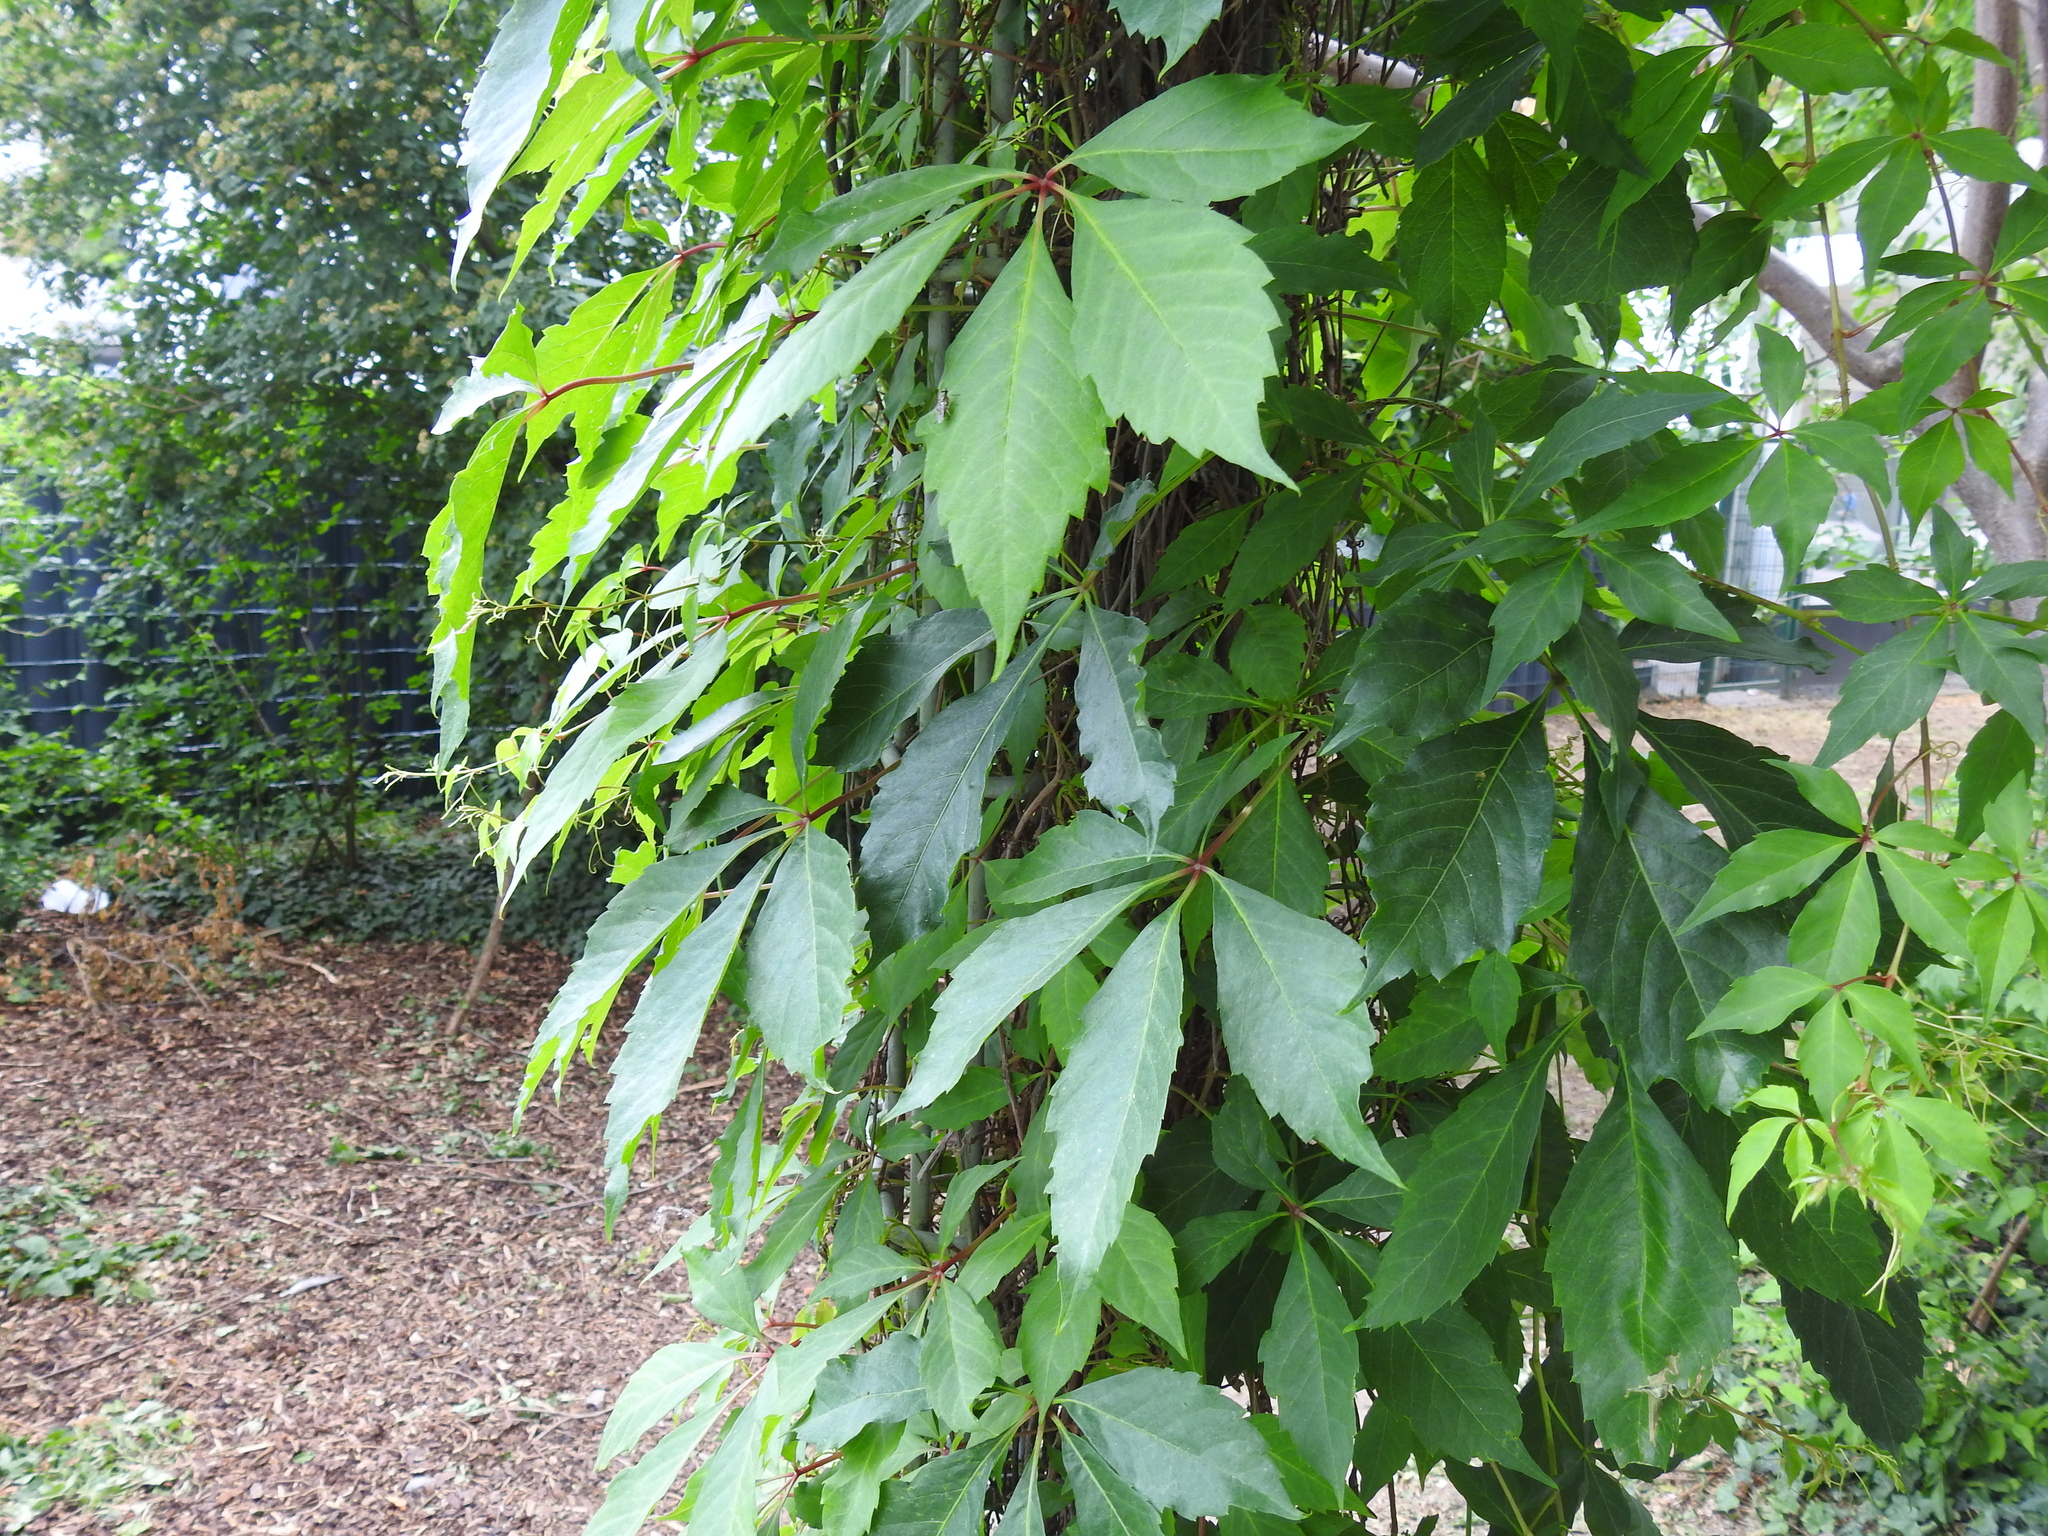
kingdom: Plantae
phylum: Tracheophyta
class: Magnoliopsida
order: Vitales
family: Vitaceae
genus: Parthenocissus
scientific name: Parthenocissus quinquefolia
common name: Virginia-creeper
